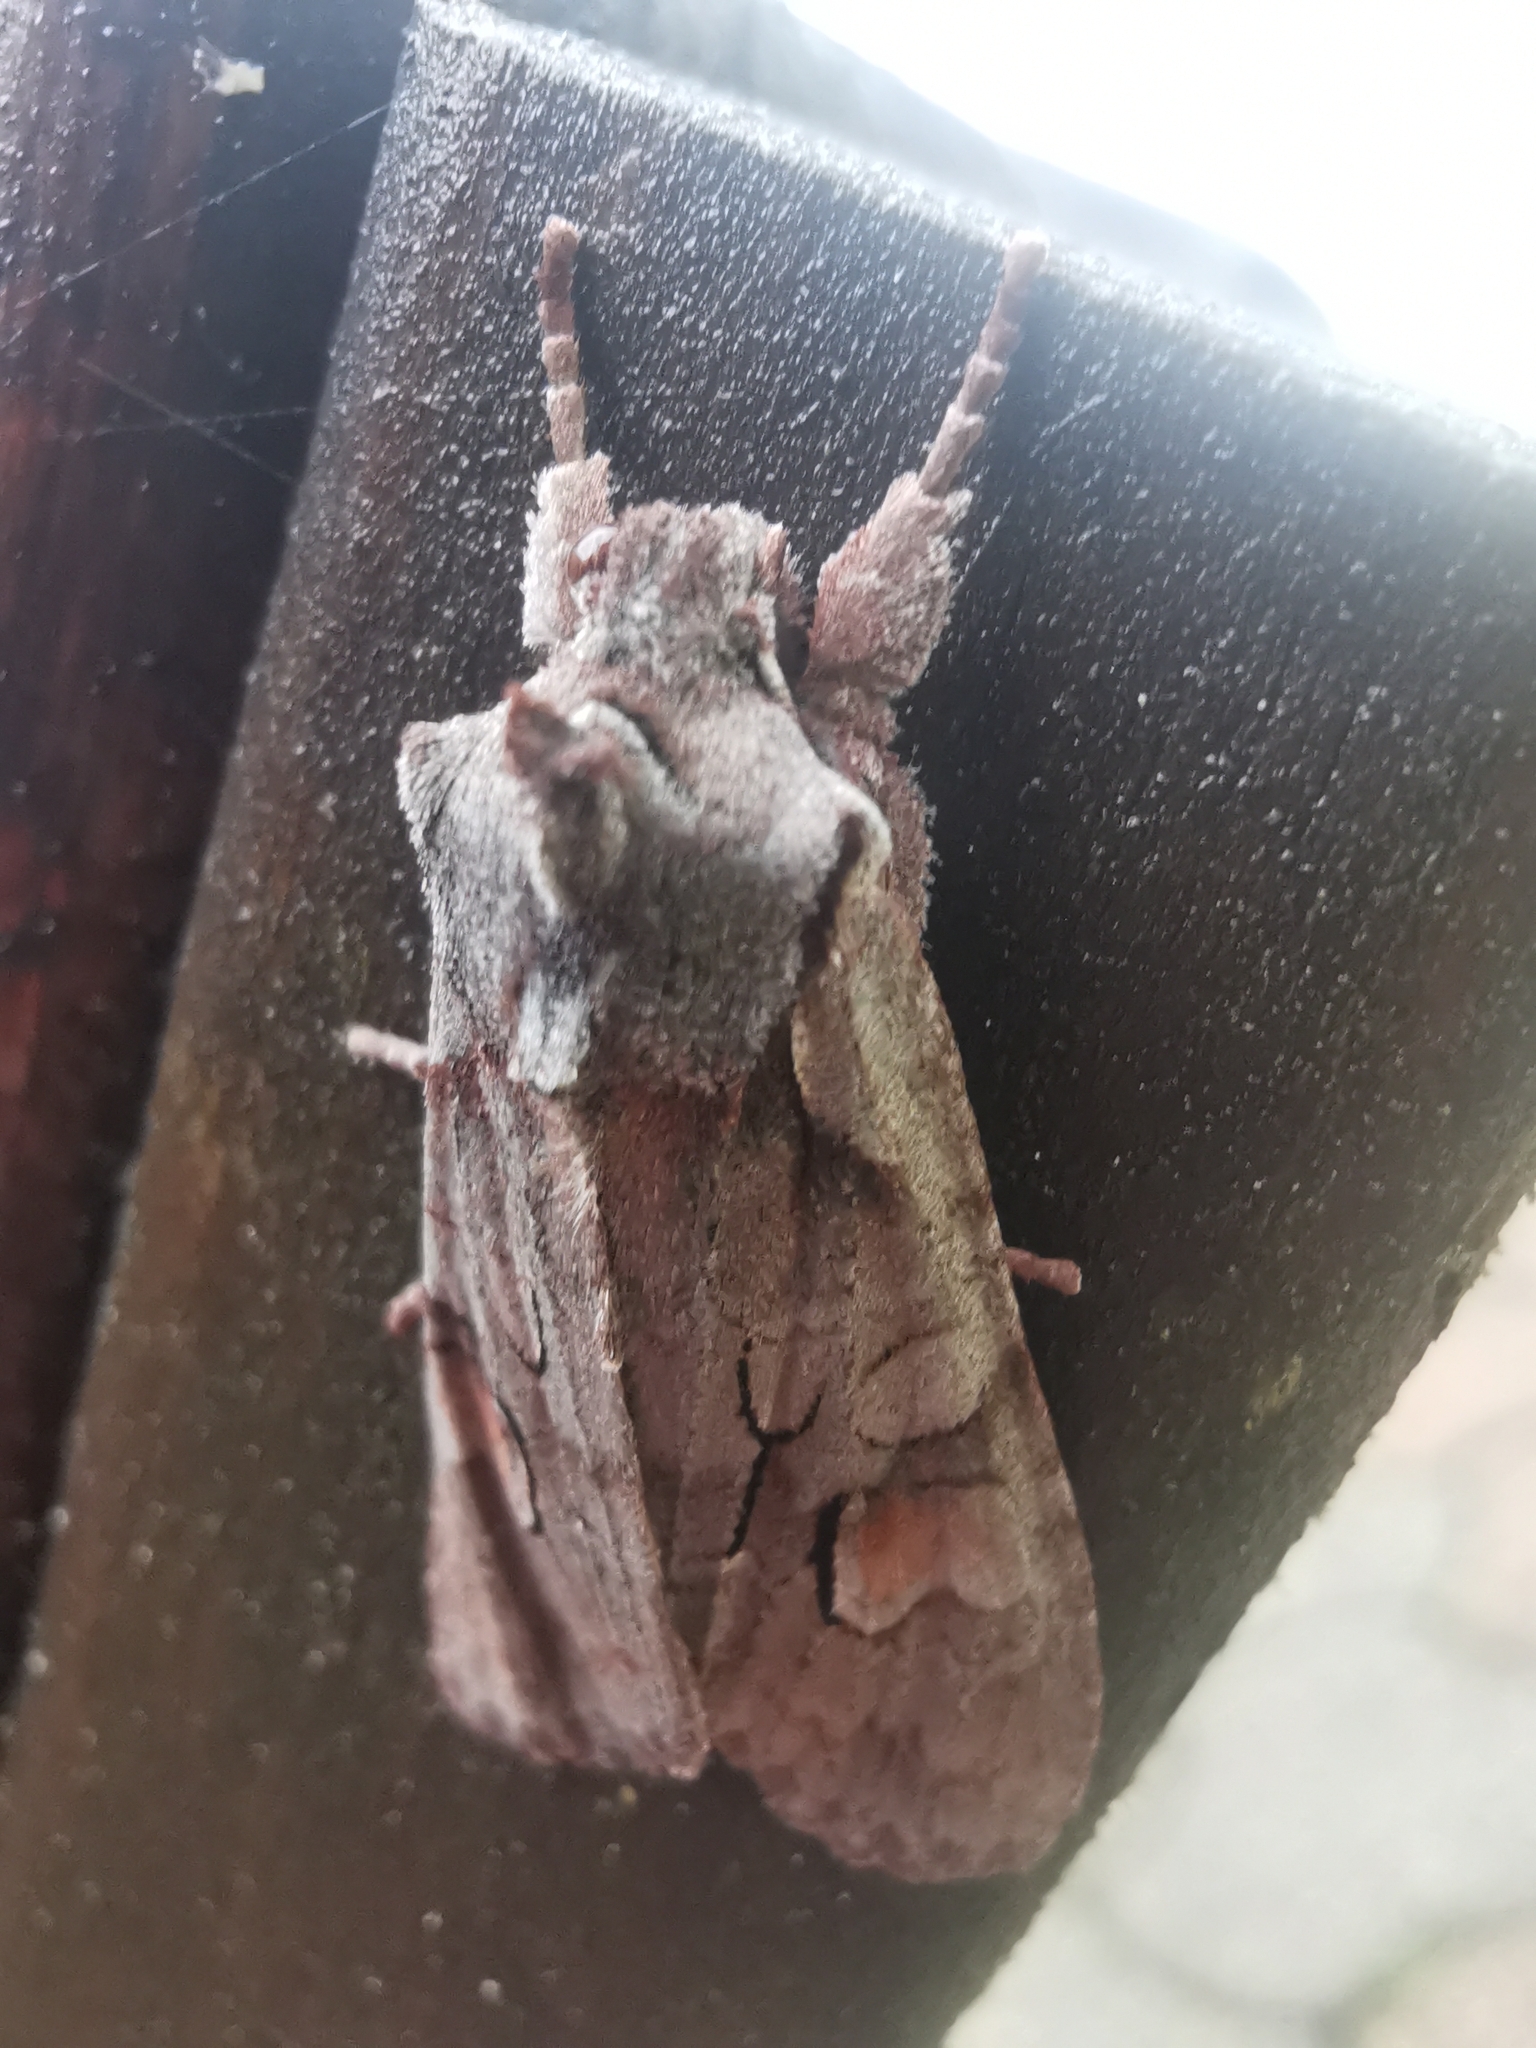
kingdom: Animalia
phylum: Arthropoda
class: Insecta
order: Lepidoptera
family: Noctuidae
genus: Lithophane
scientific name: Lithophane furcifera
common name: Conformist
